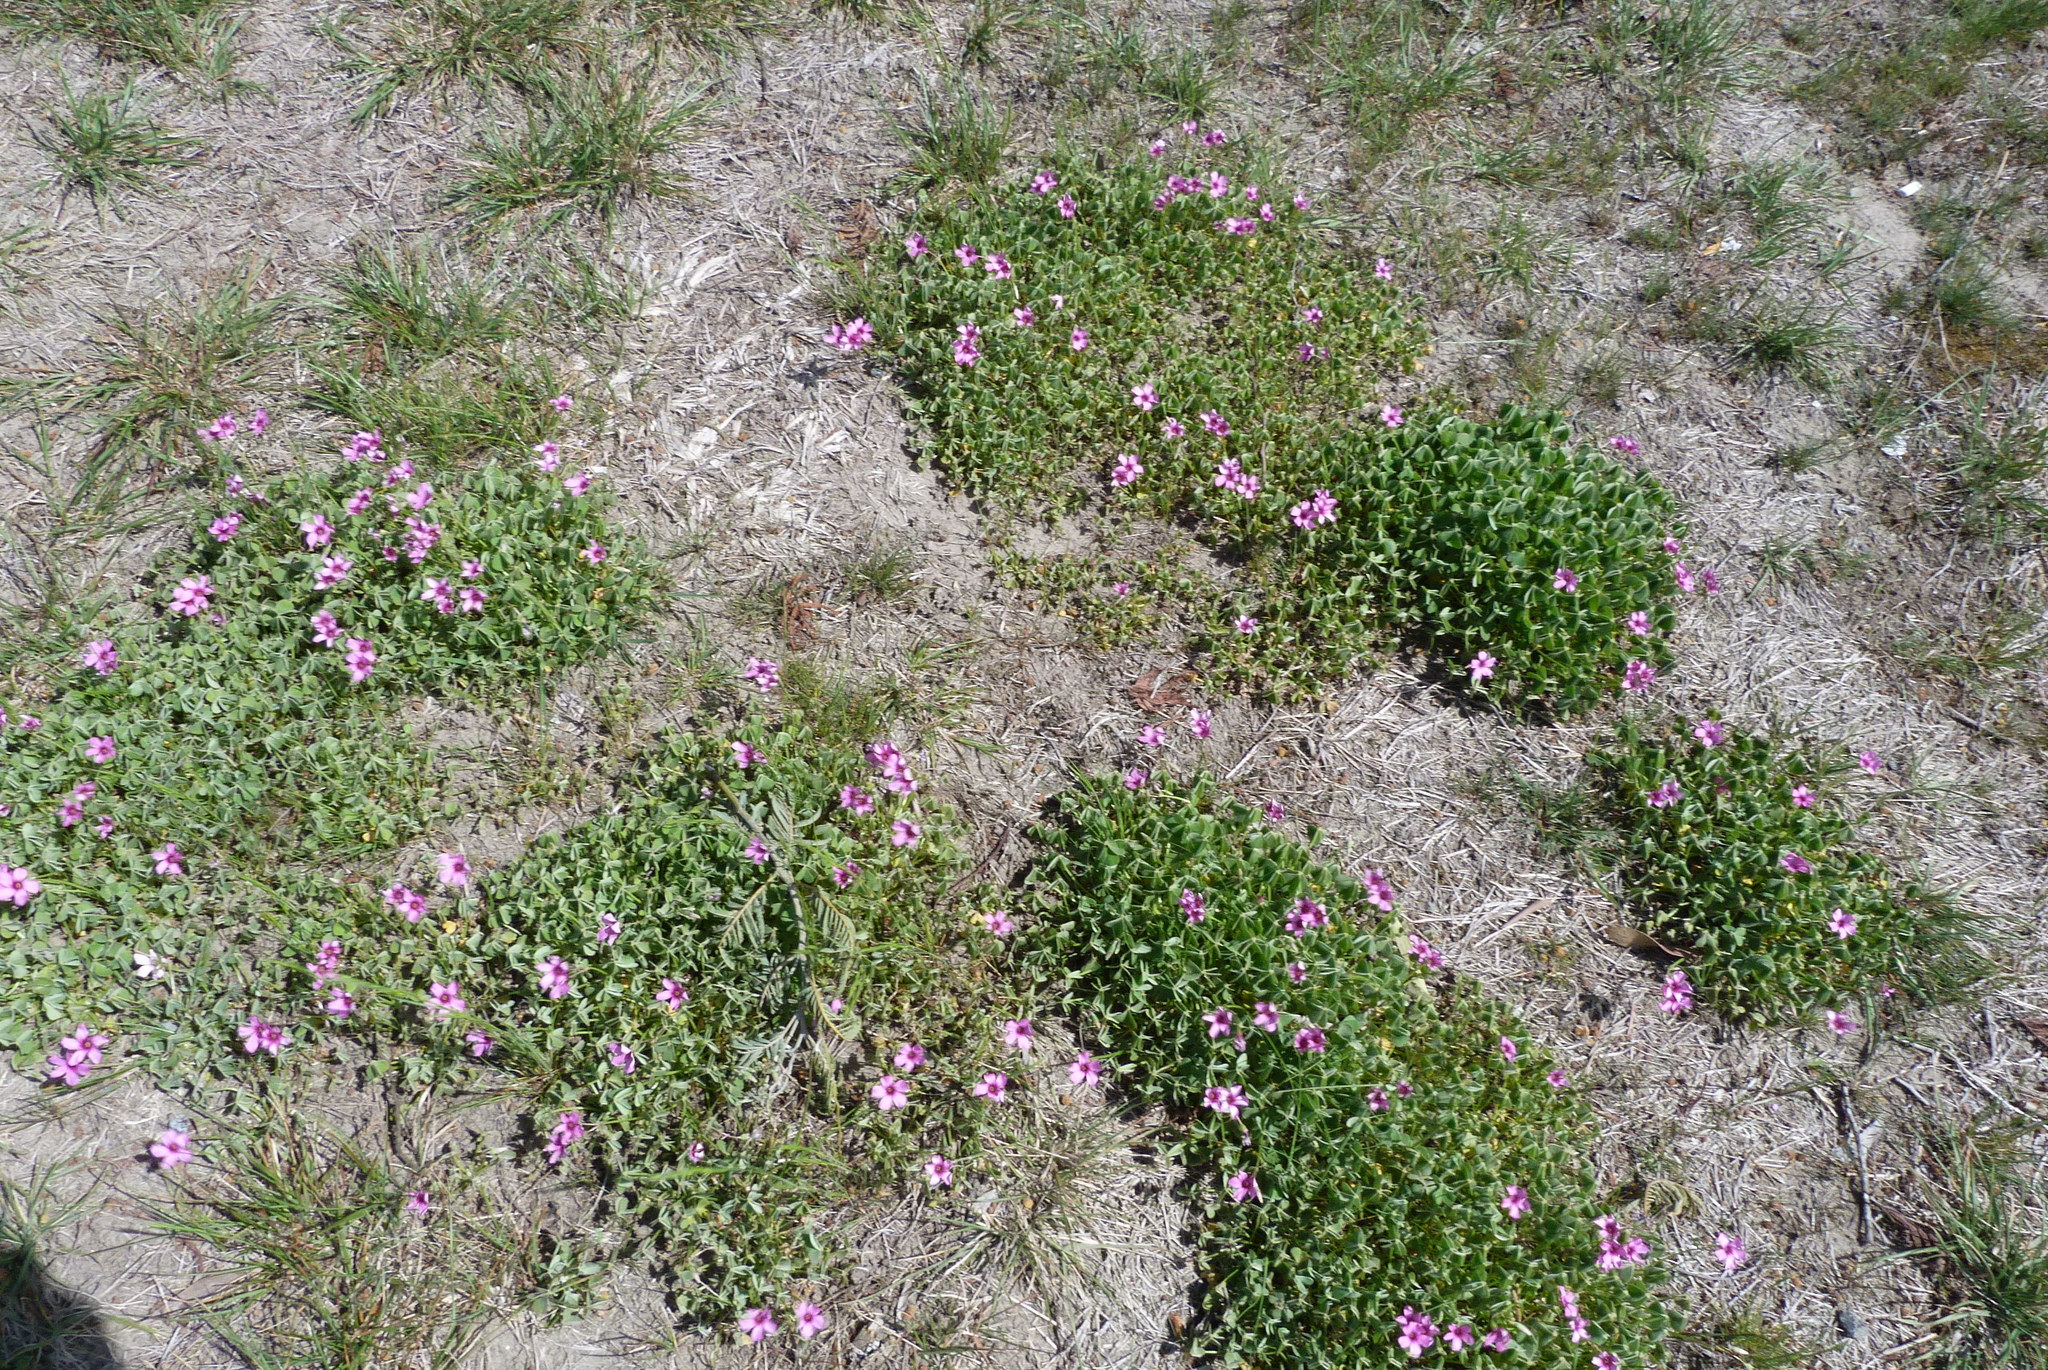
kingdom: Plantae
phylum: Tracheophyta
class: Magnoliopsida
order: Oxalidales
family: Oxalidaceae
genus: Oxalis
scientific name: Oxalis articulata
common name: Pink-sorrel
